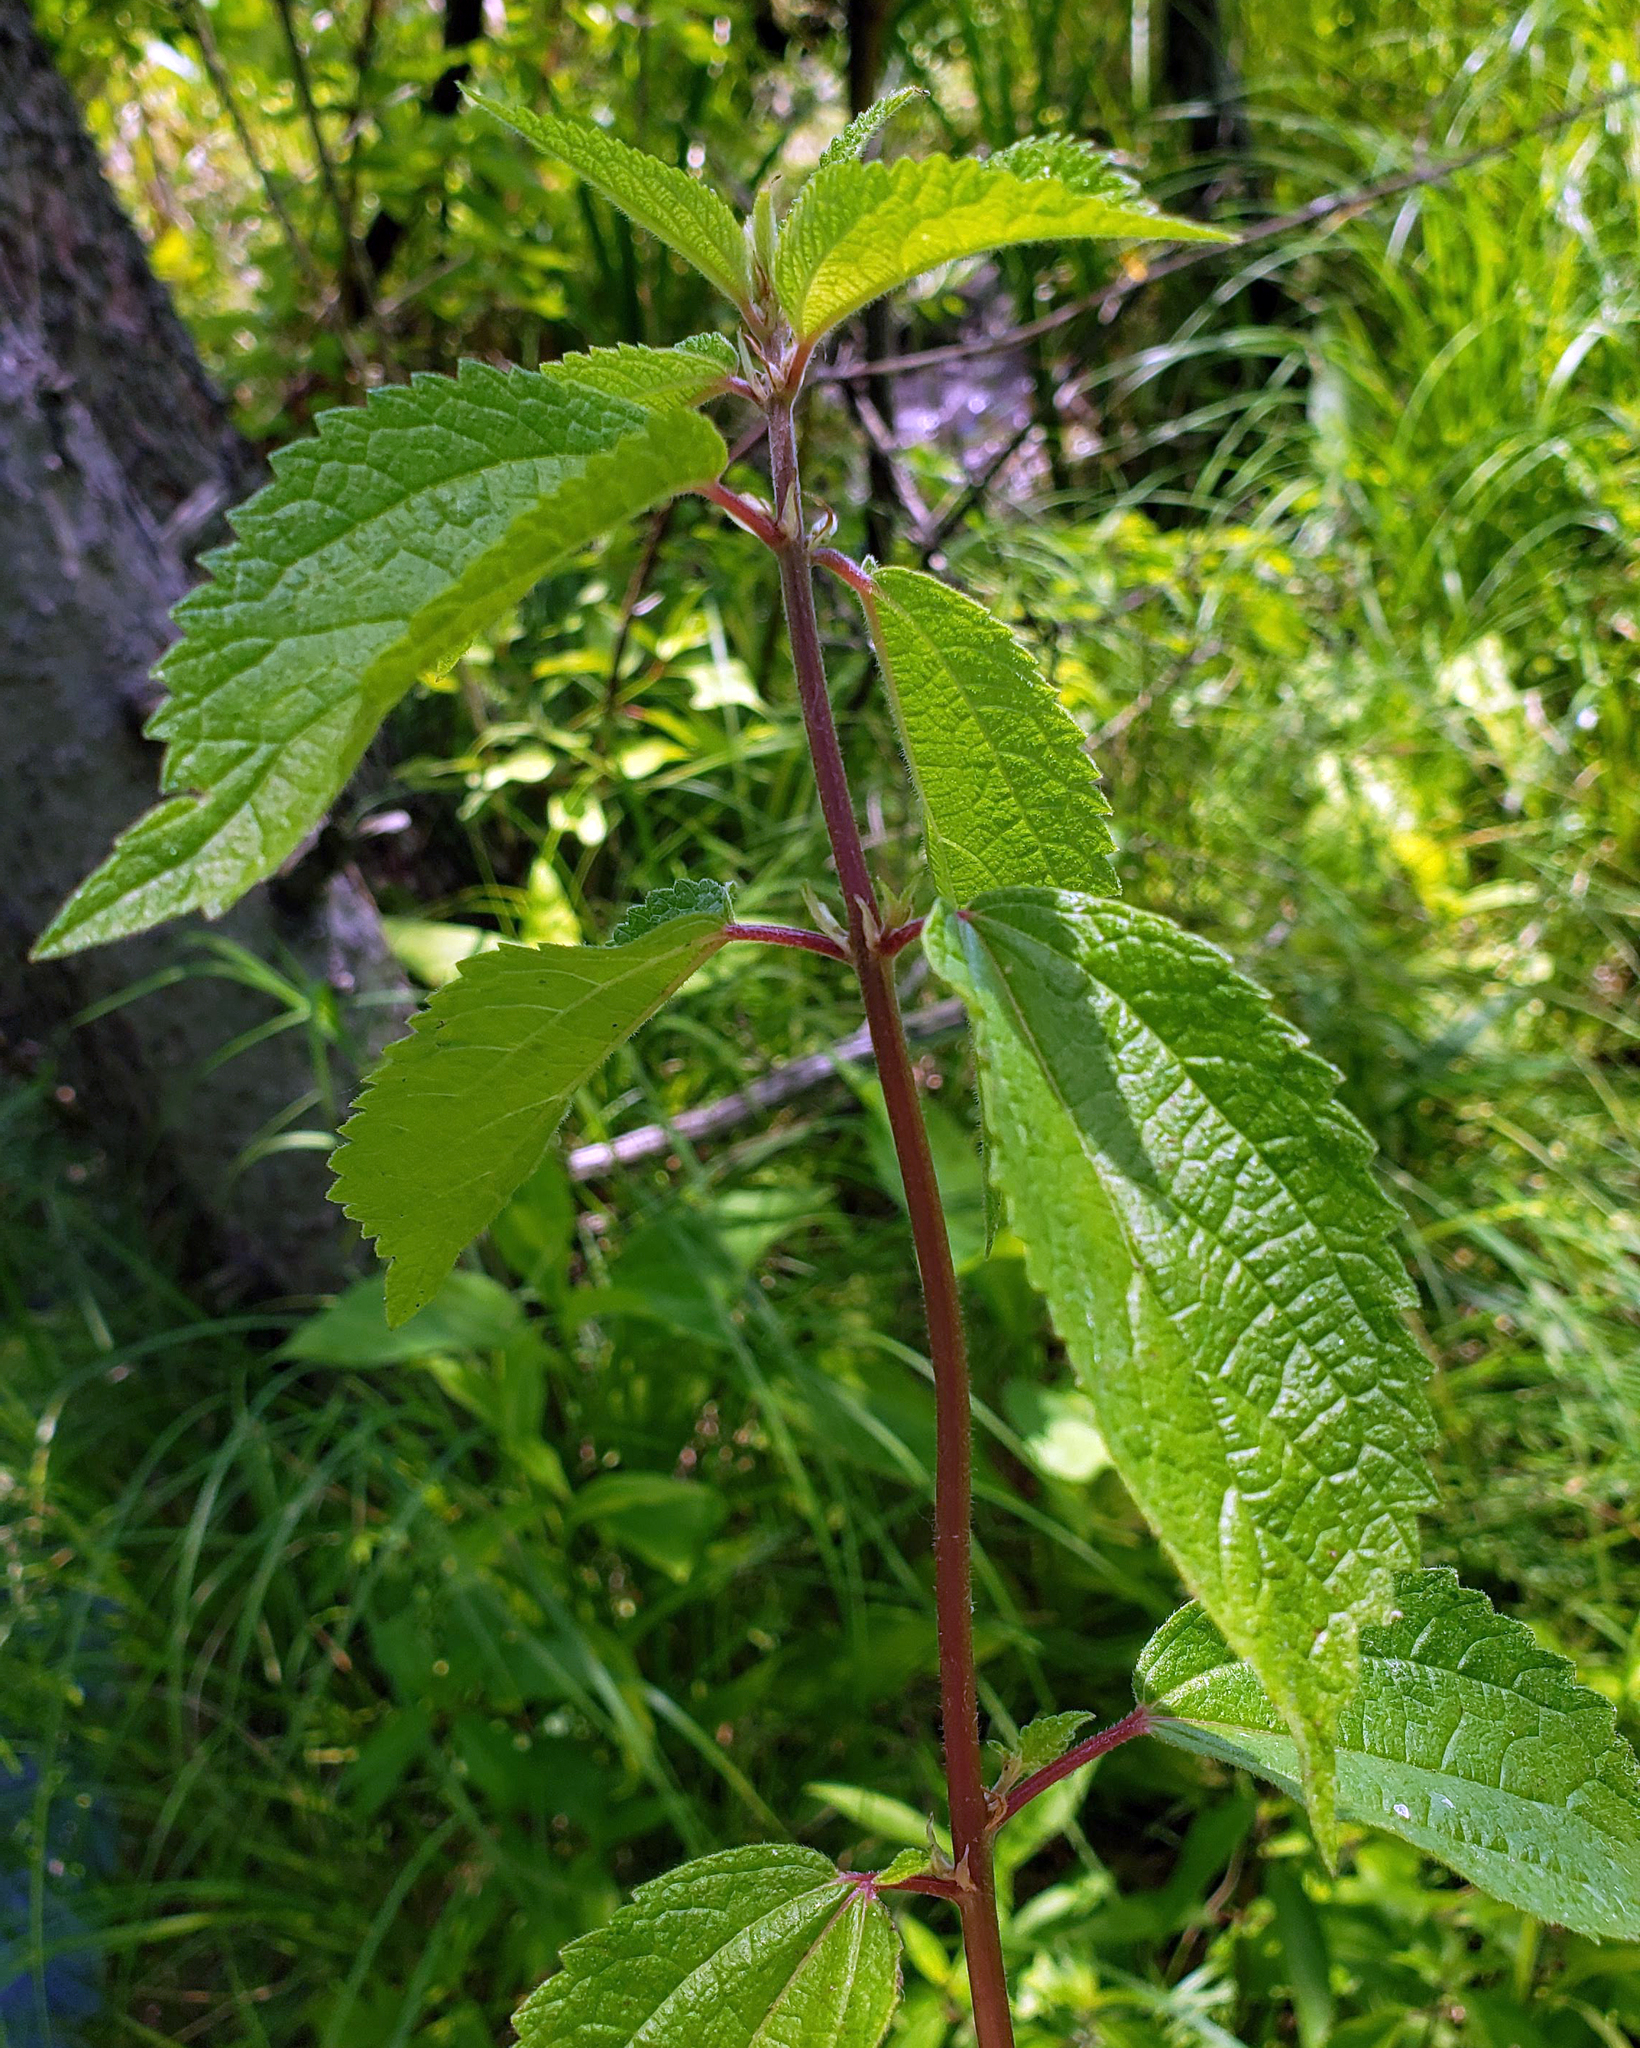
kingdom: Plantae
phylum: Tracheophyta
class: Magnoliopsida
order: Rosales
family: Urticaceae
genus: Boehmeria
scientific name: Boehmeria cylindrica
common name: Bog-hemp
